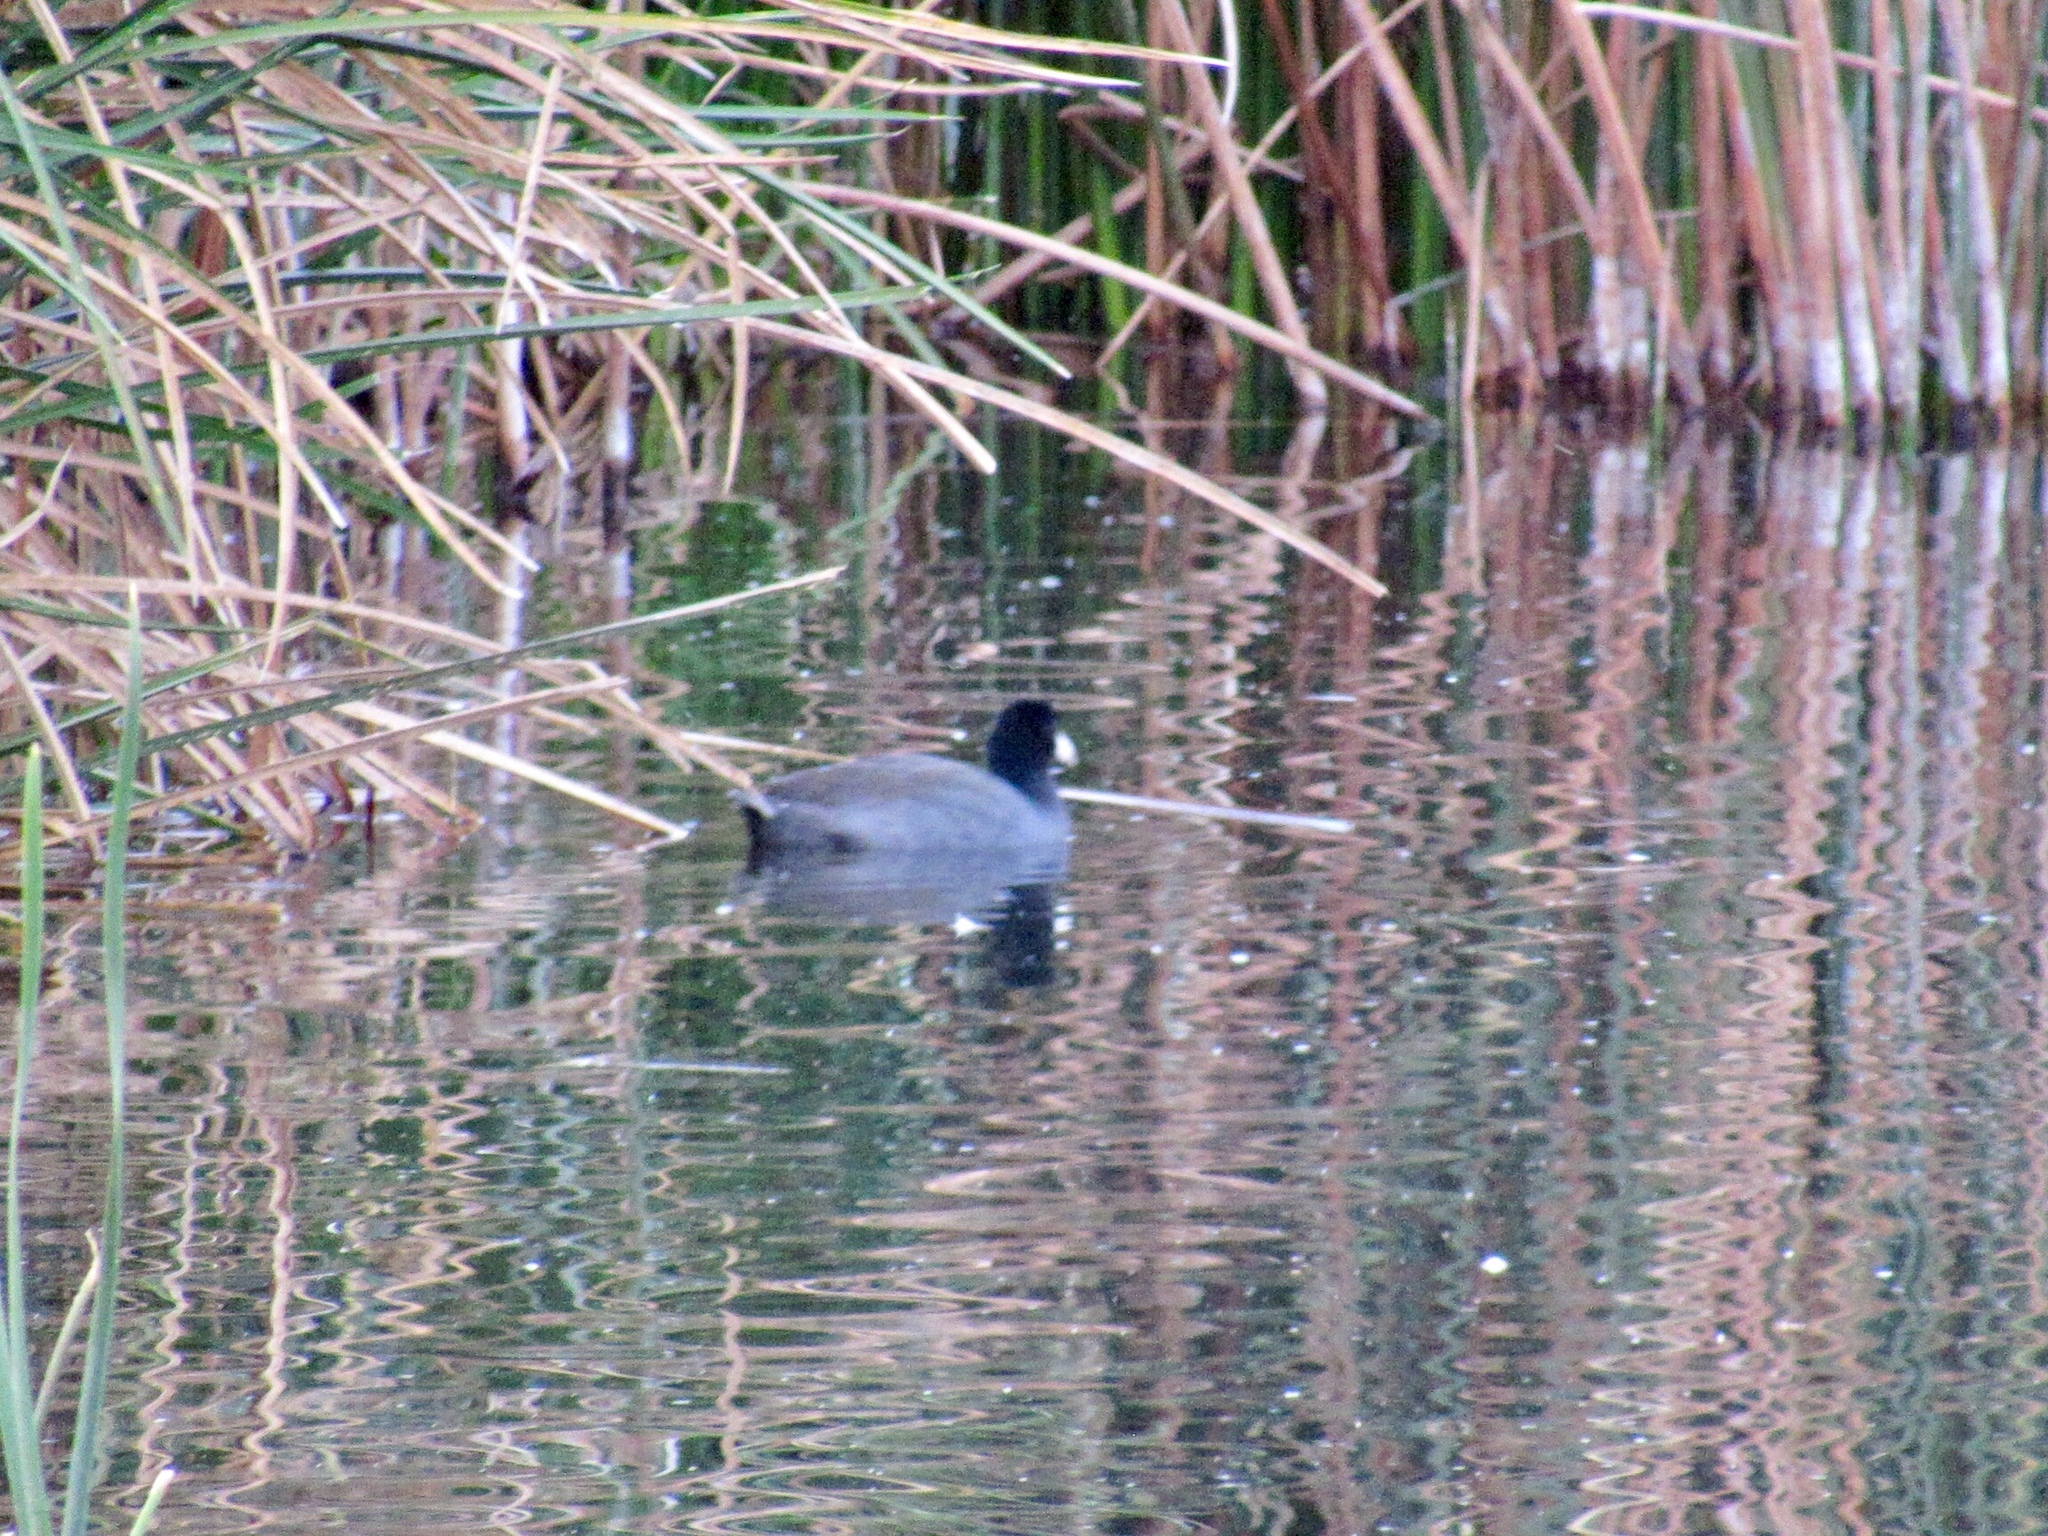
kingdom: Animalia
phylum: Chordata
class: Aves
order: Gruiformes
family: Rallidae
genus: Fulica
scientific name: Fulica americana
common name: American coot
